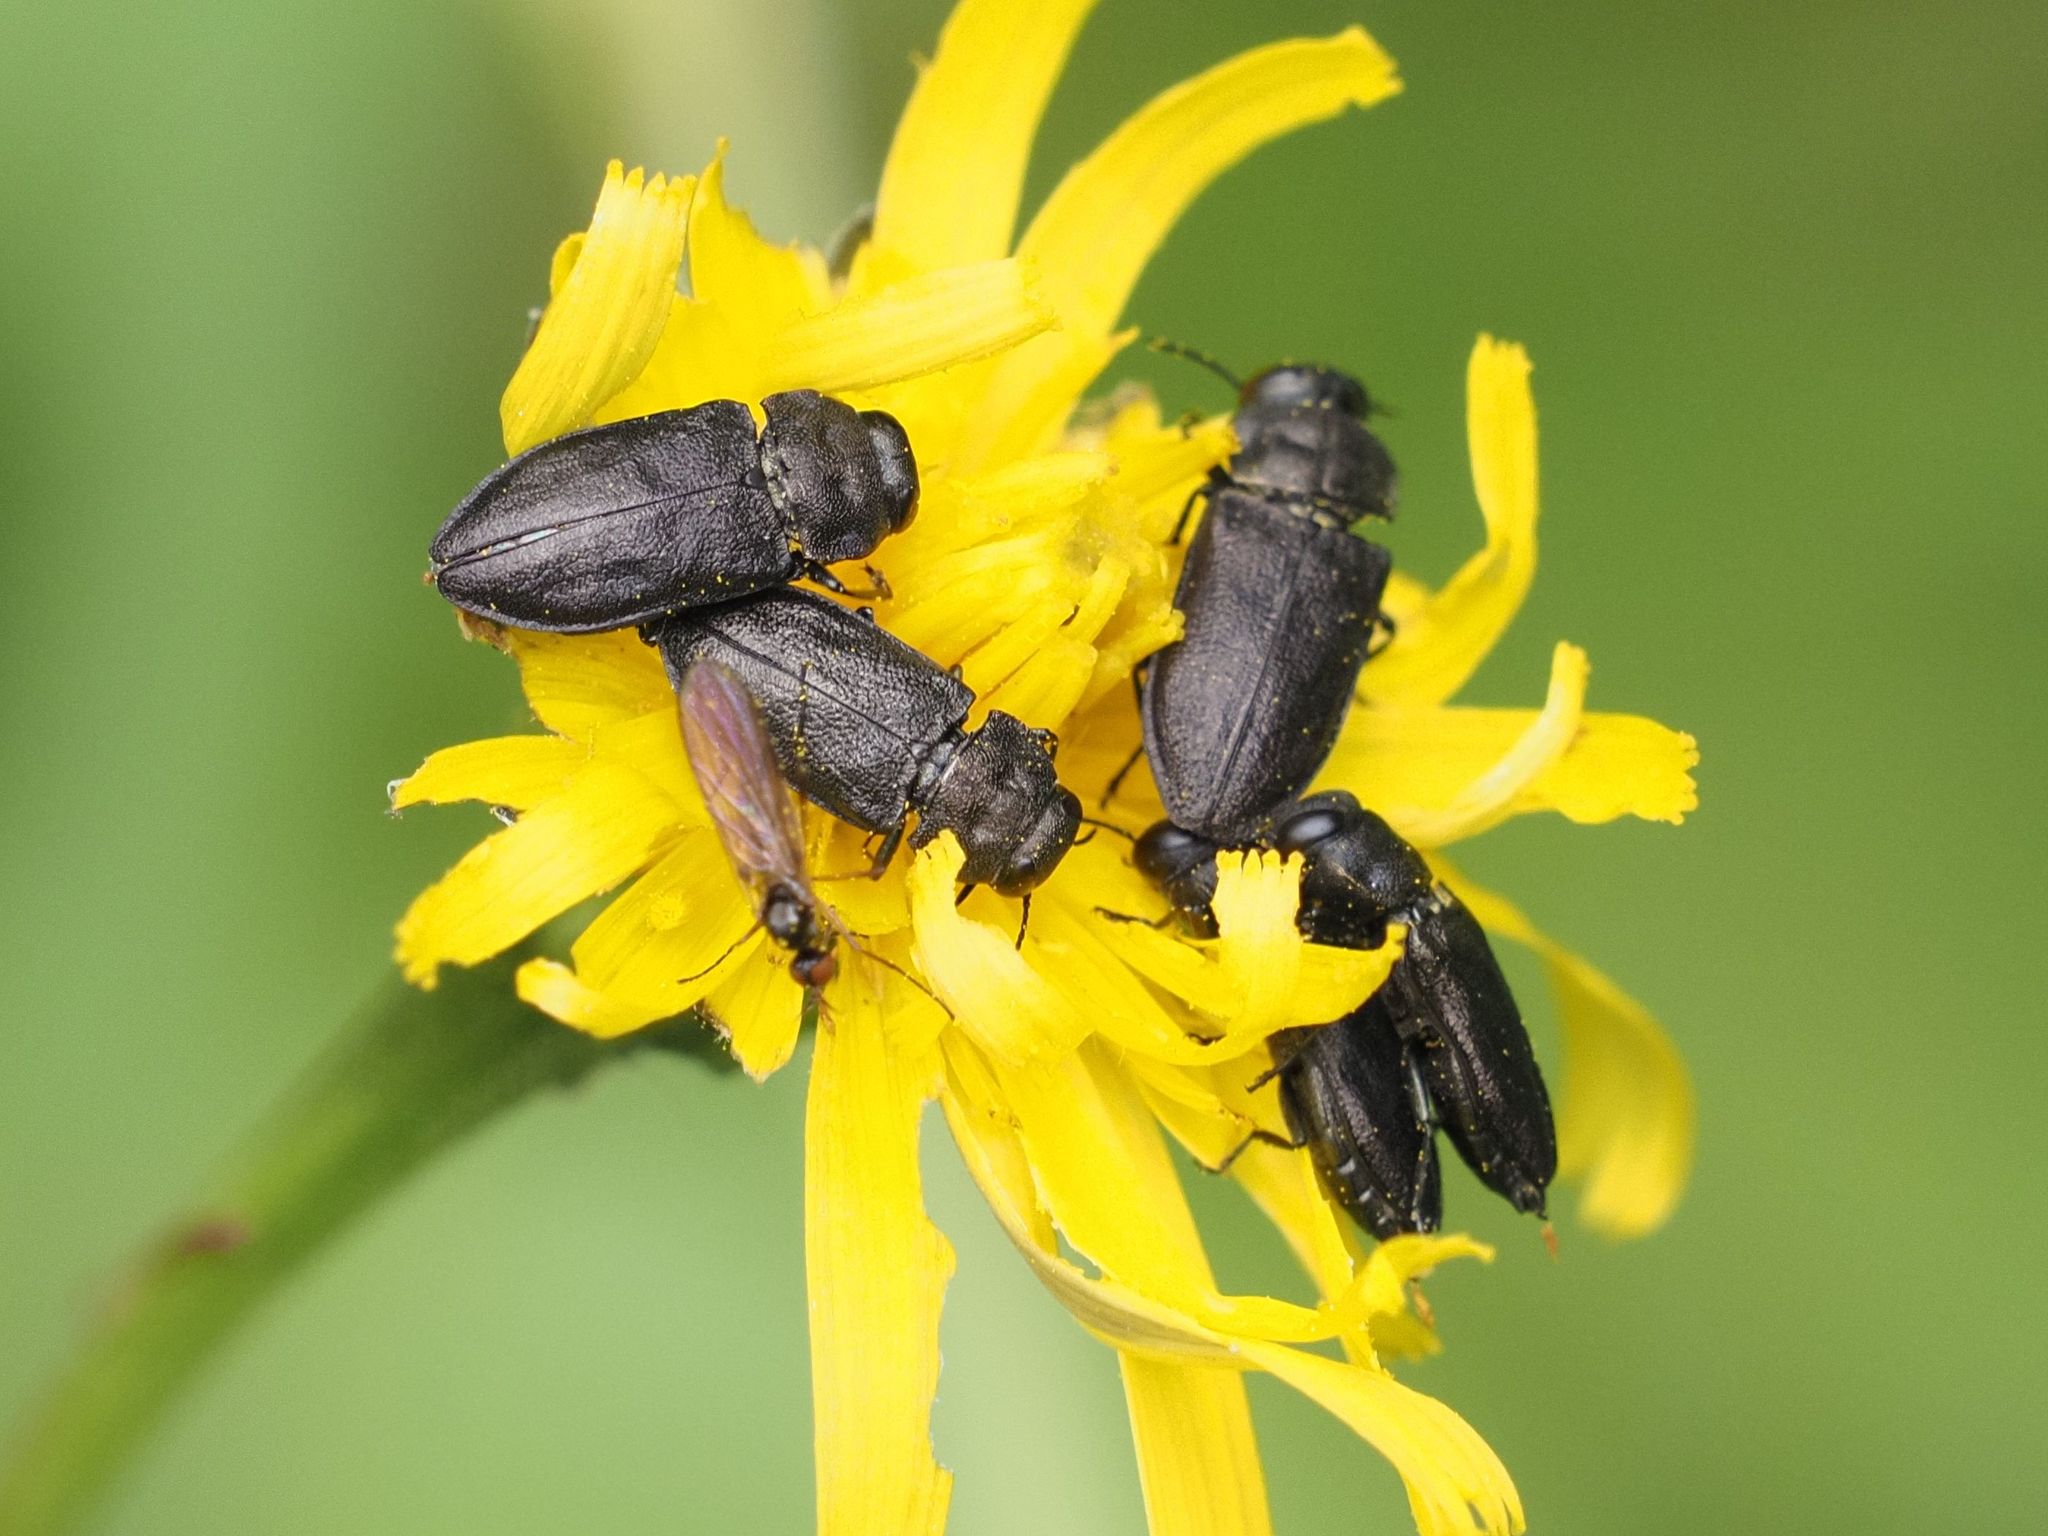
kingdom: Animalia
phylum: Arthropoda
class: Insecta
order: Coleoptera
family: Buprestidae
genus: Anthaxia
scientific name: Anthaxia quadripunctata
